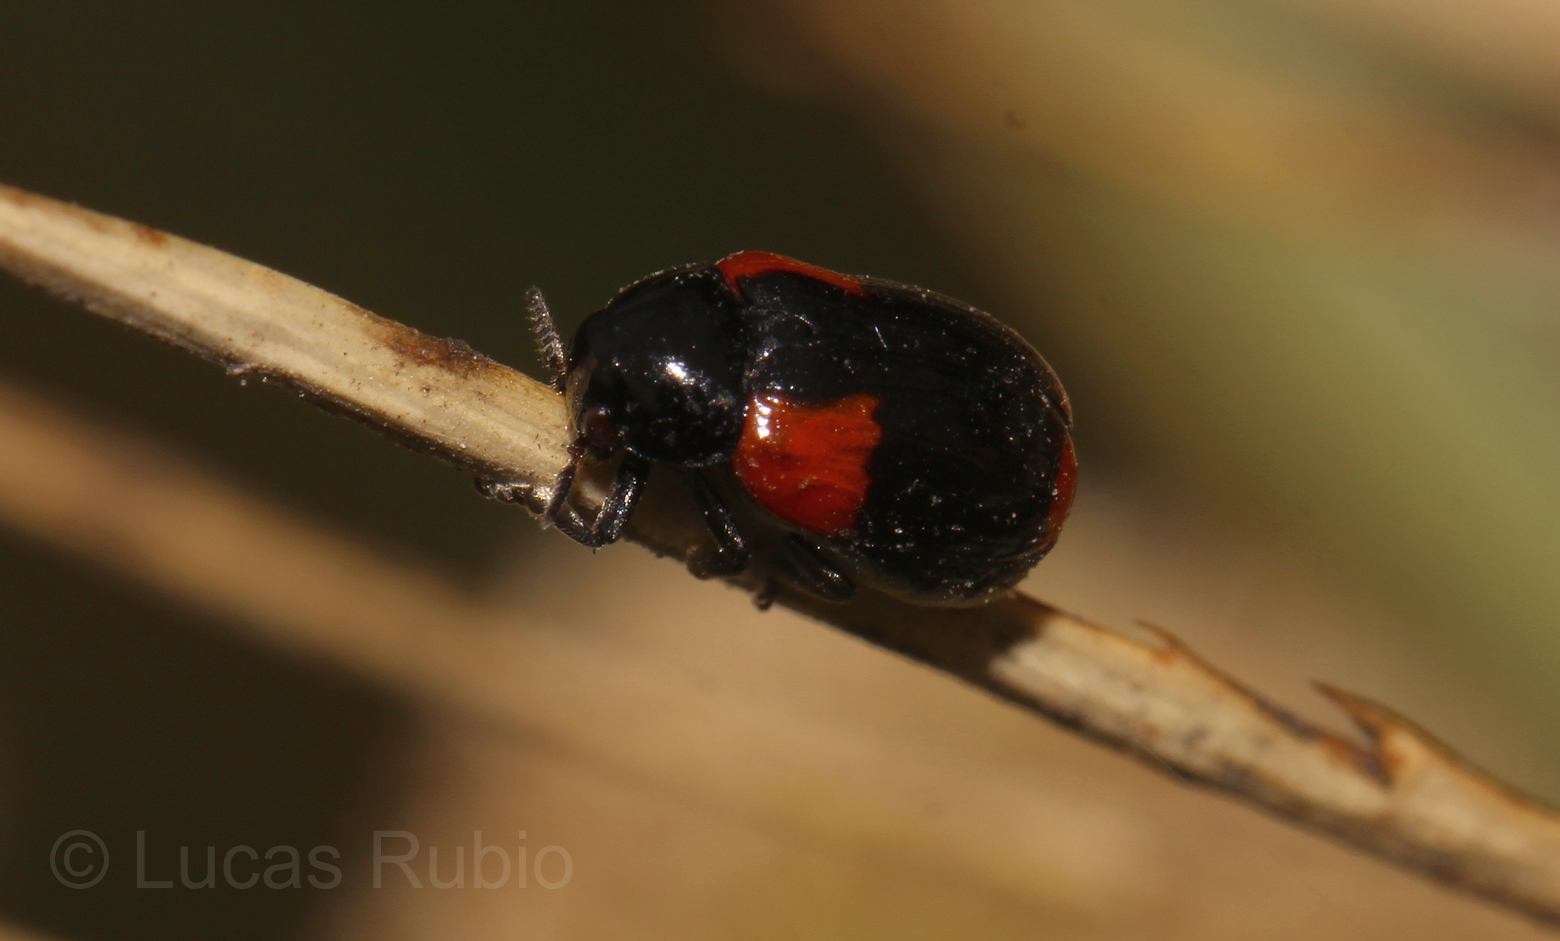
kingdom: Animalia
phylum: Arthropoda
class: Insecta
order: Coleoptera
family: Chrysomelidae
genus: Temnodachrys
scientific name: Temnodachrys
